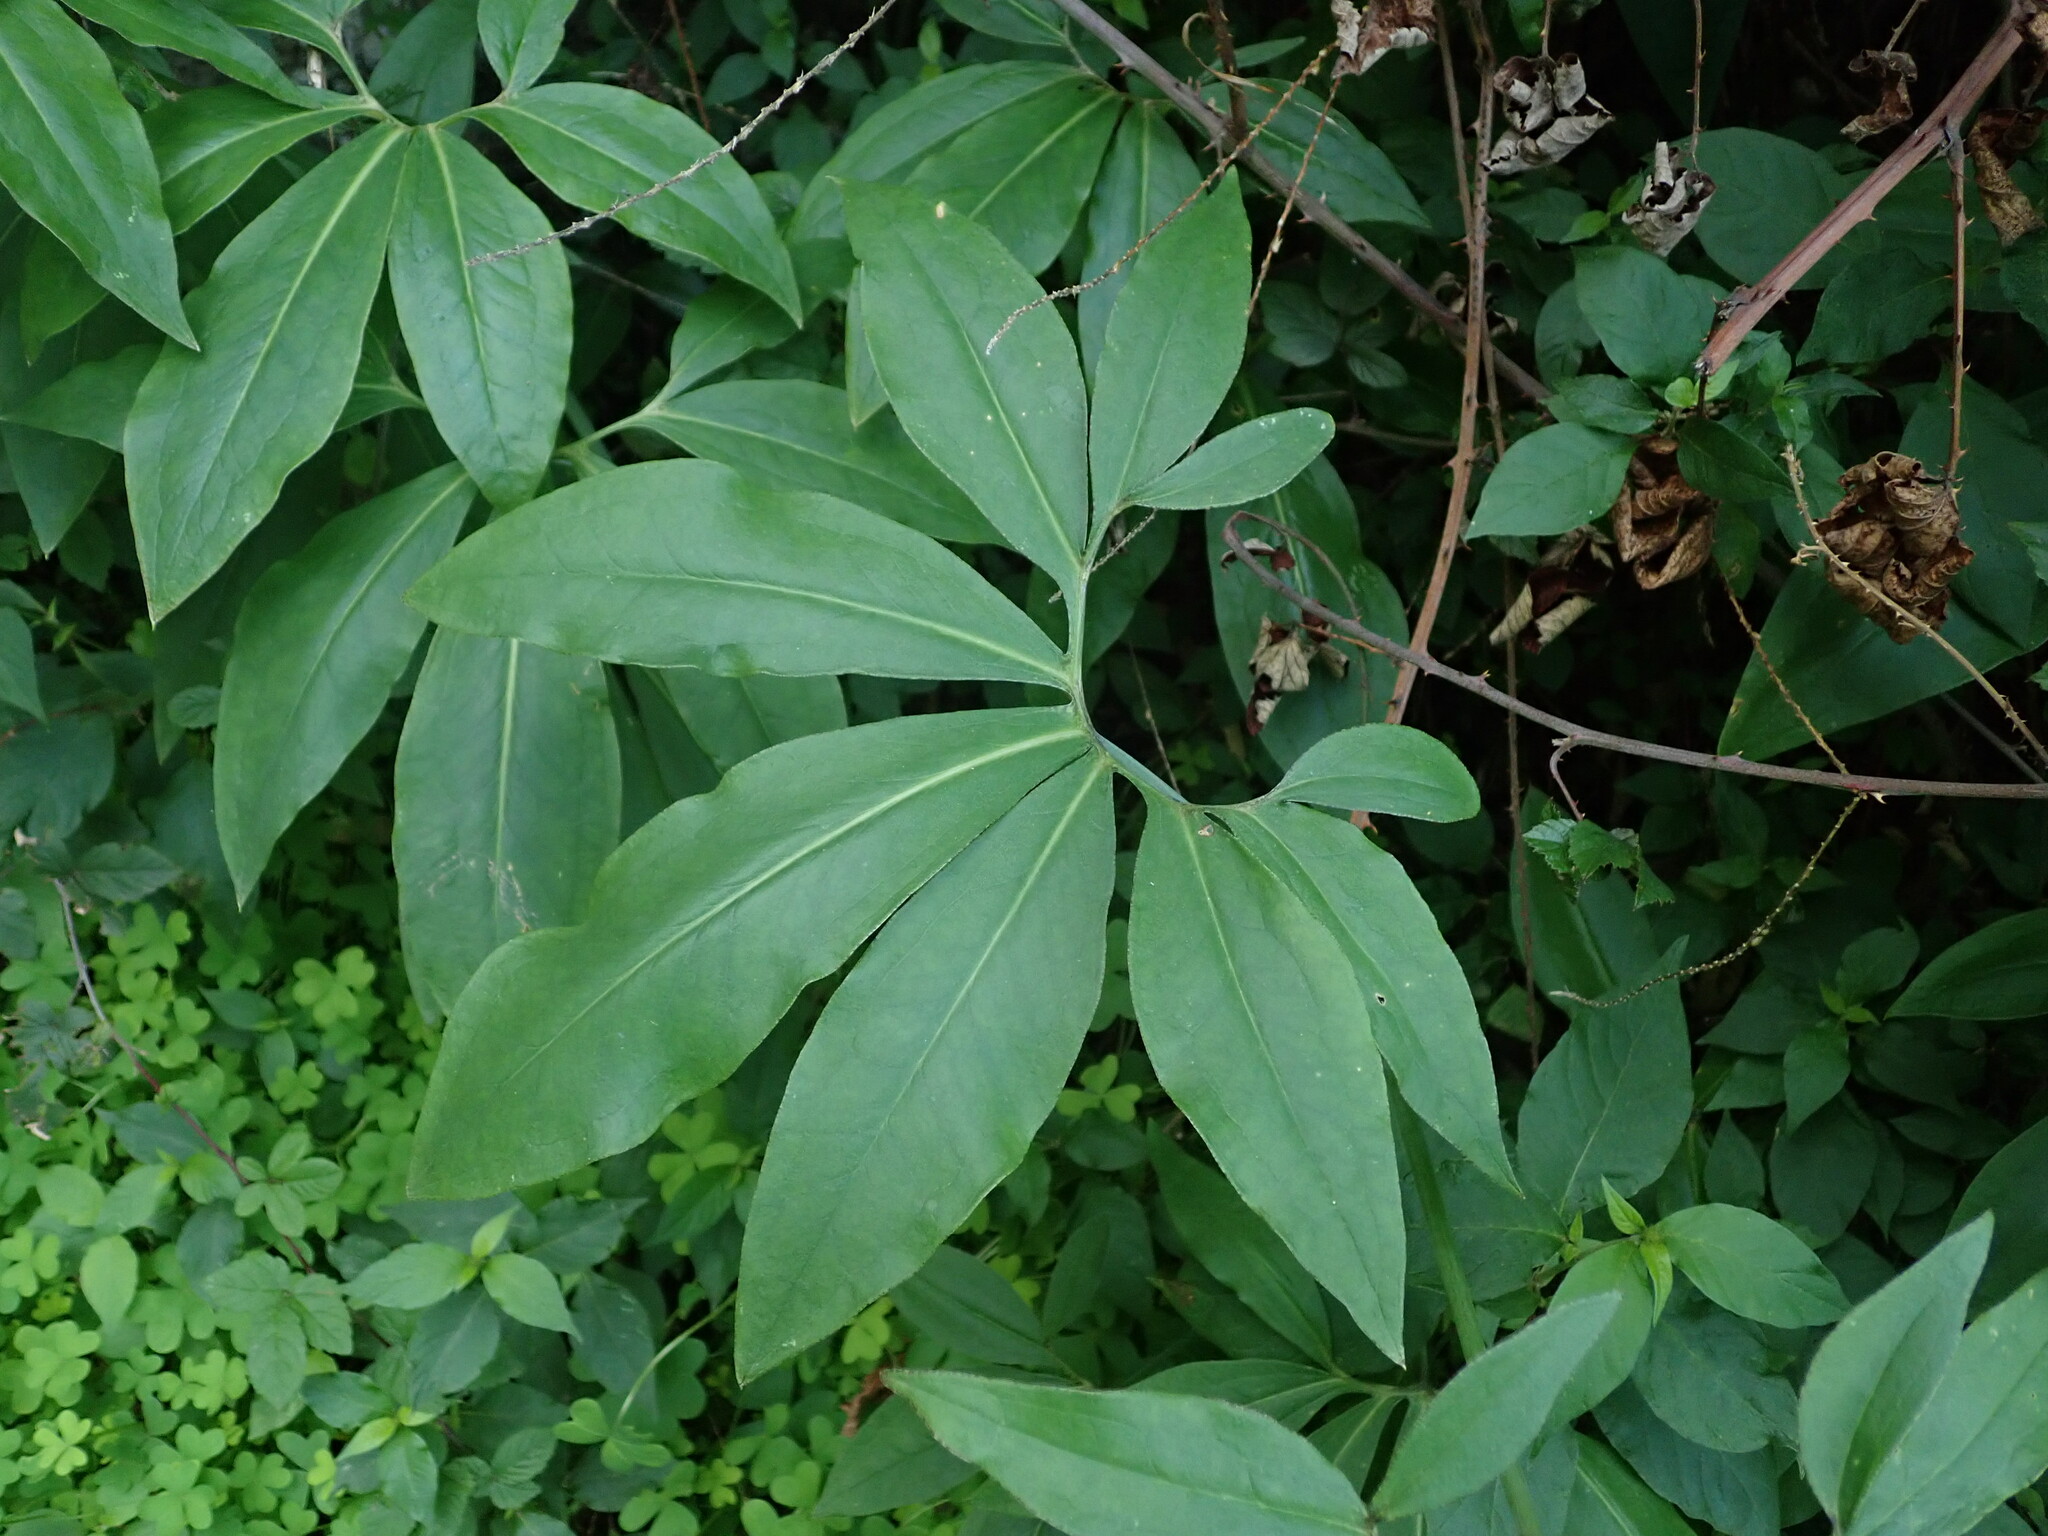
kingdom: Plantae
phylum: Tracheophyta
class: Liliopsida
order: Alismatales
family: Araceae
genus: Dracunculus
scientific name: Dracunculus canariensis
